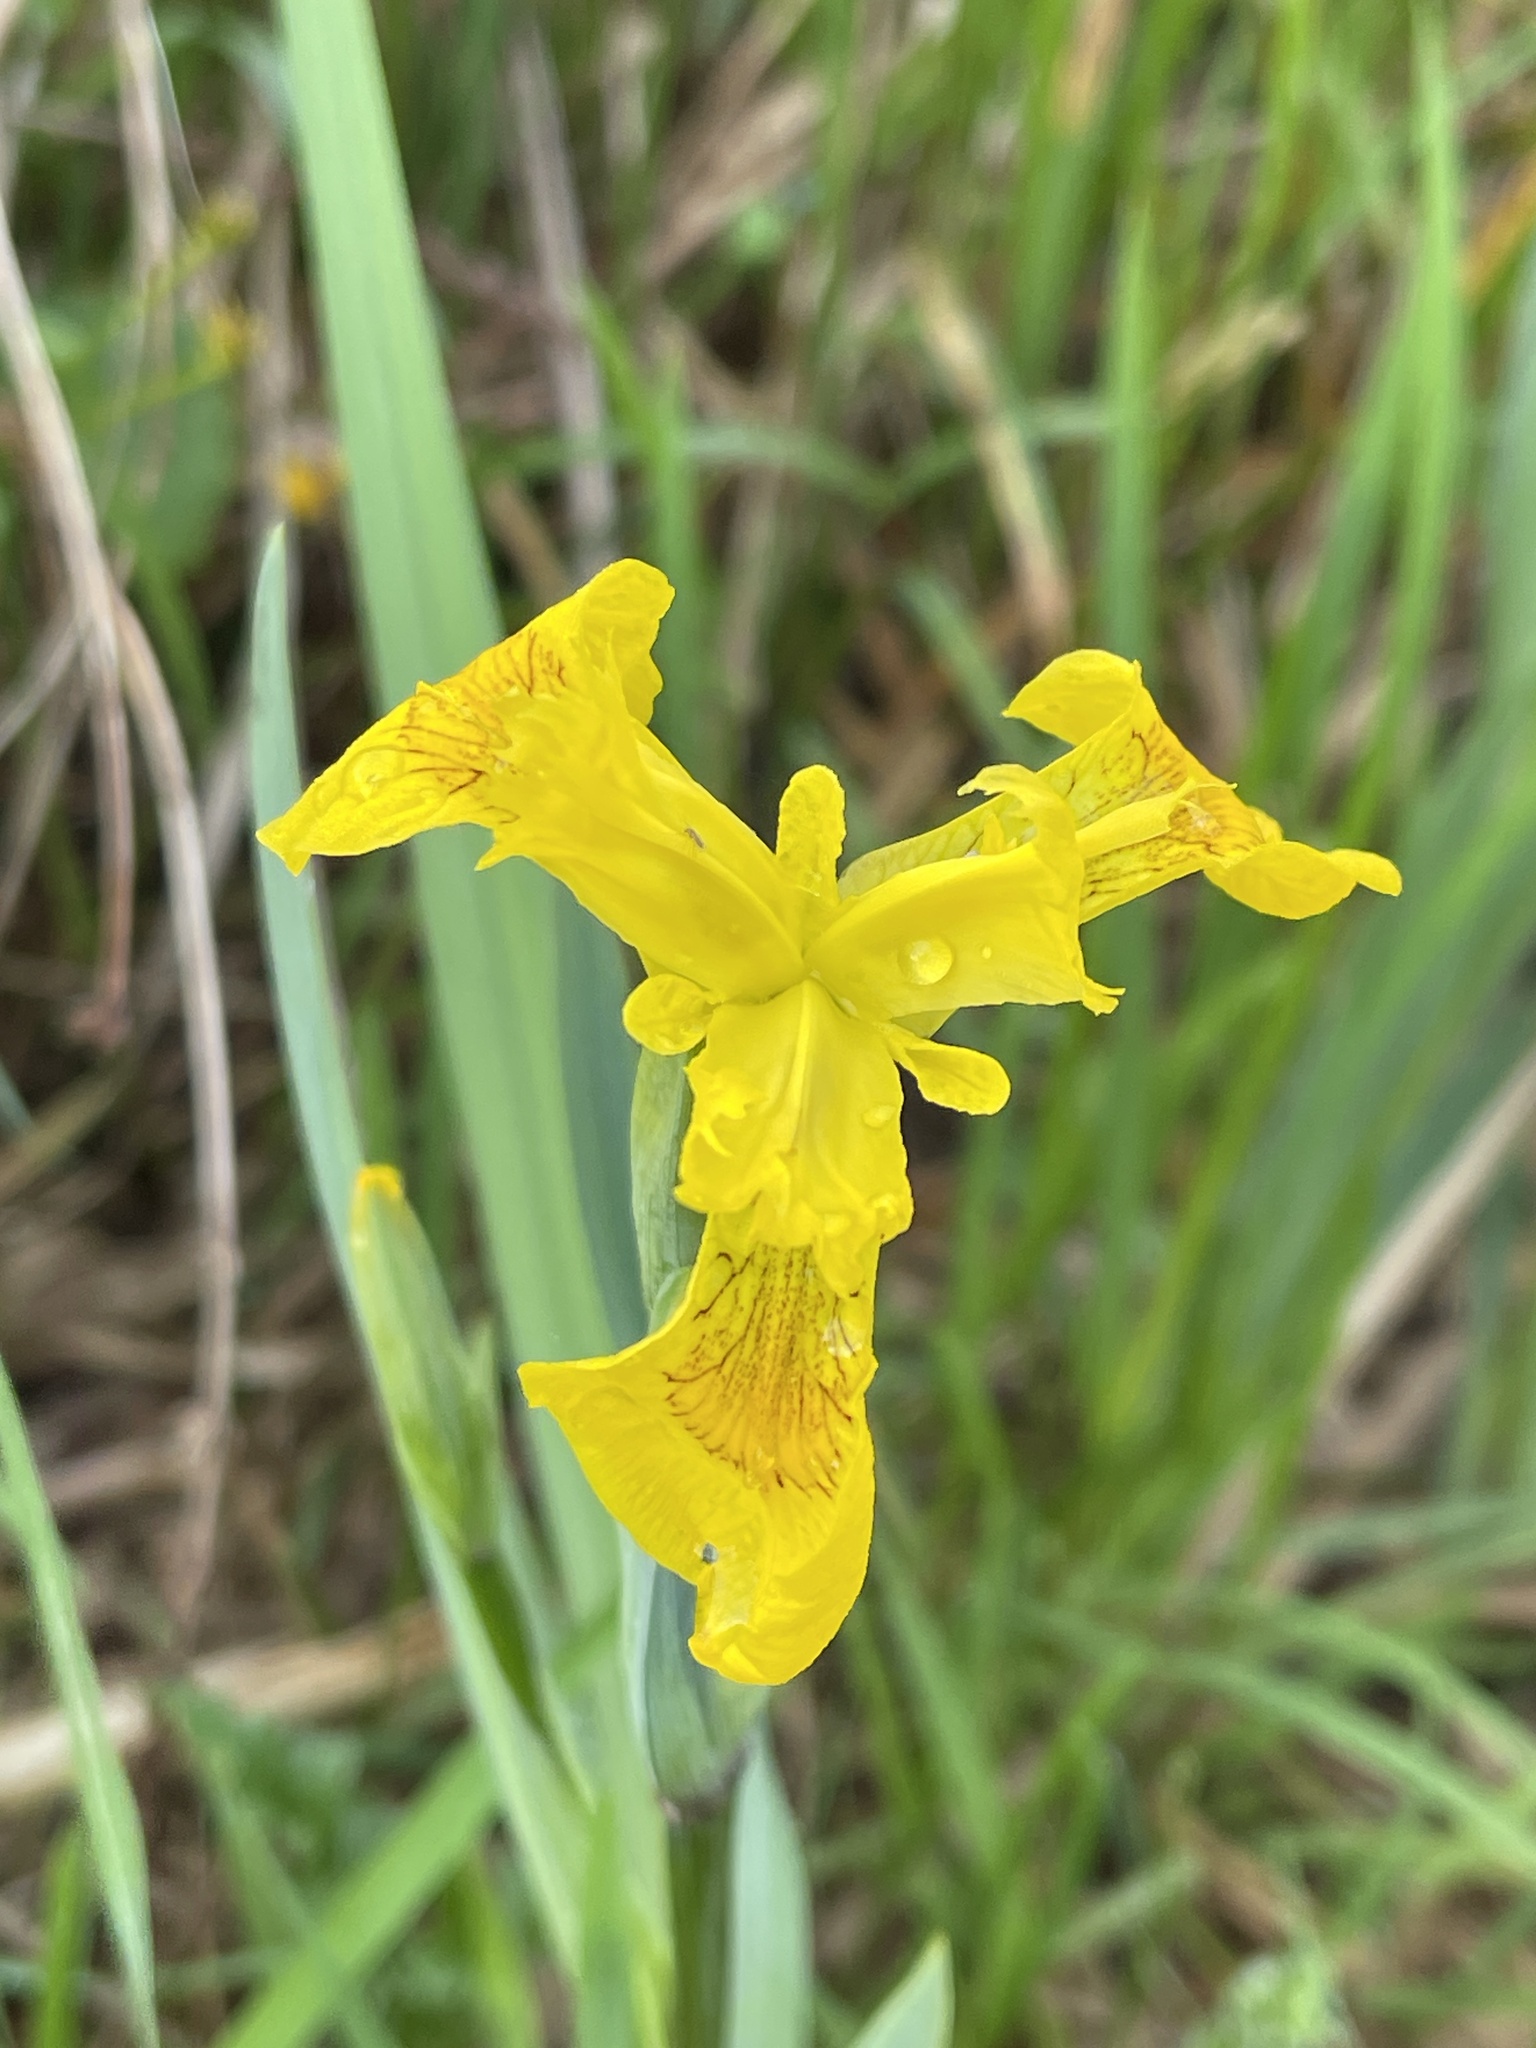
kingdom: Plantae
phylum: Tracheophyta
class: Liliopsida
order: Asparagales
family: Iridaceae
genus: Iris
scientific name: Iris pseudacorus
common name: Yellow flag
